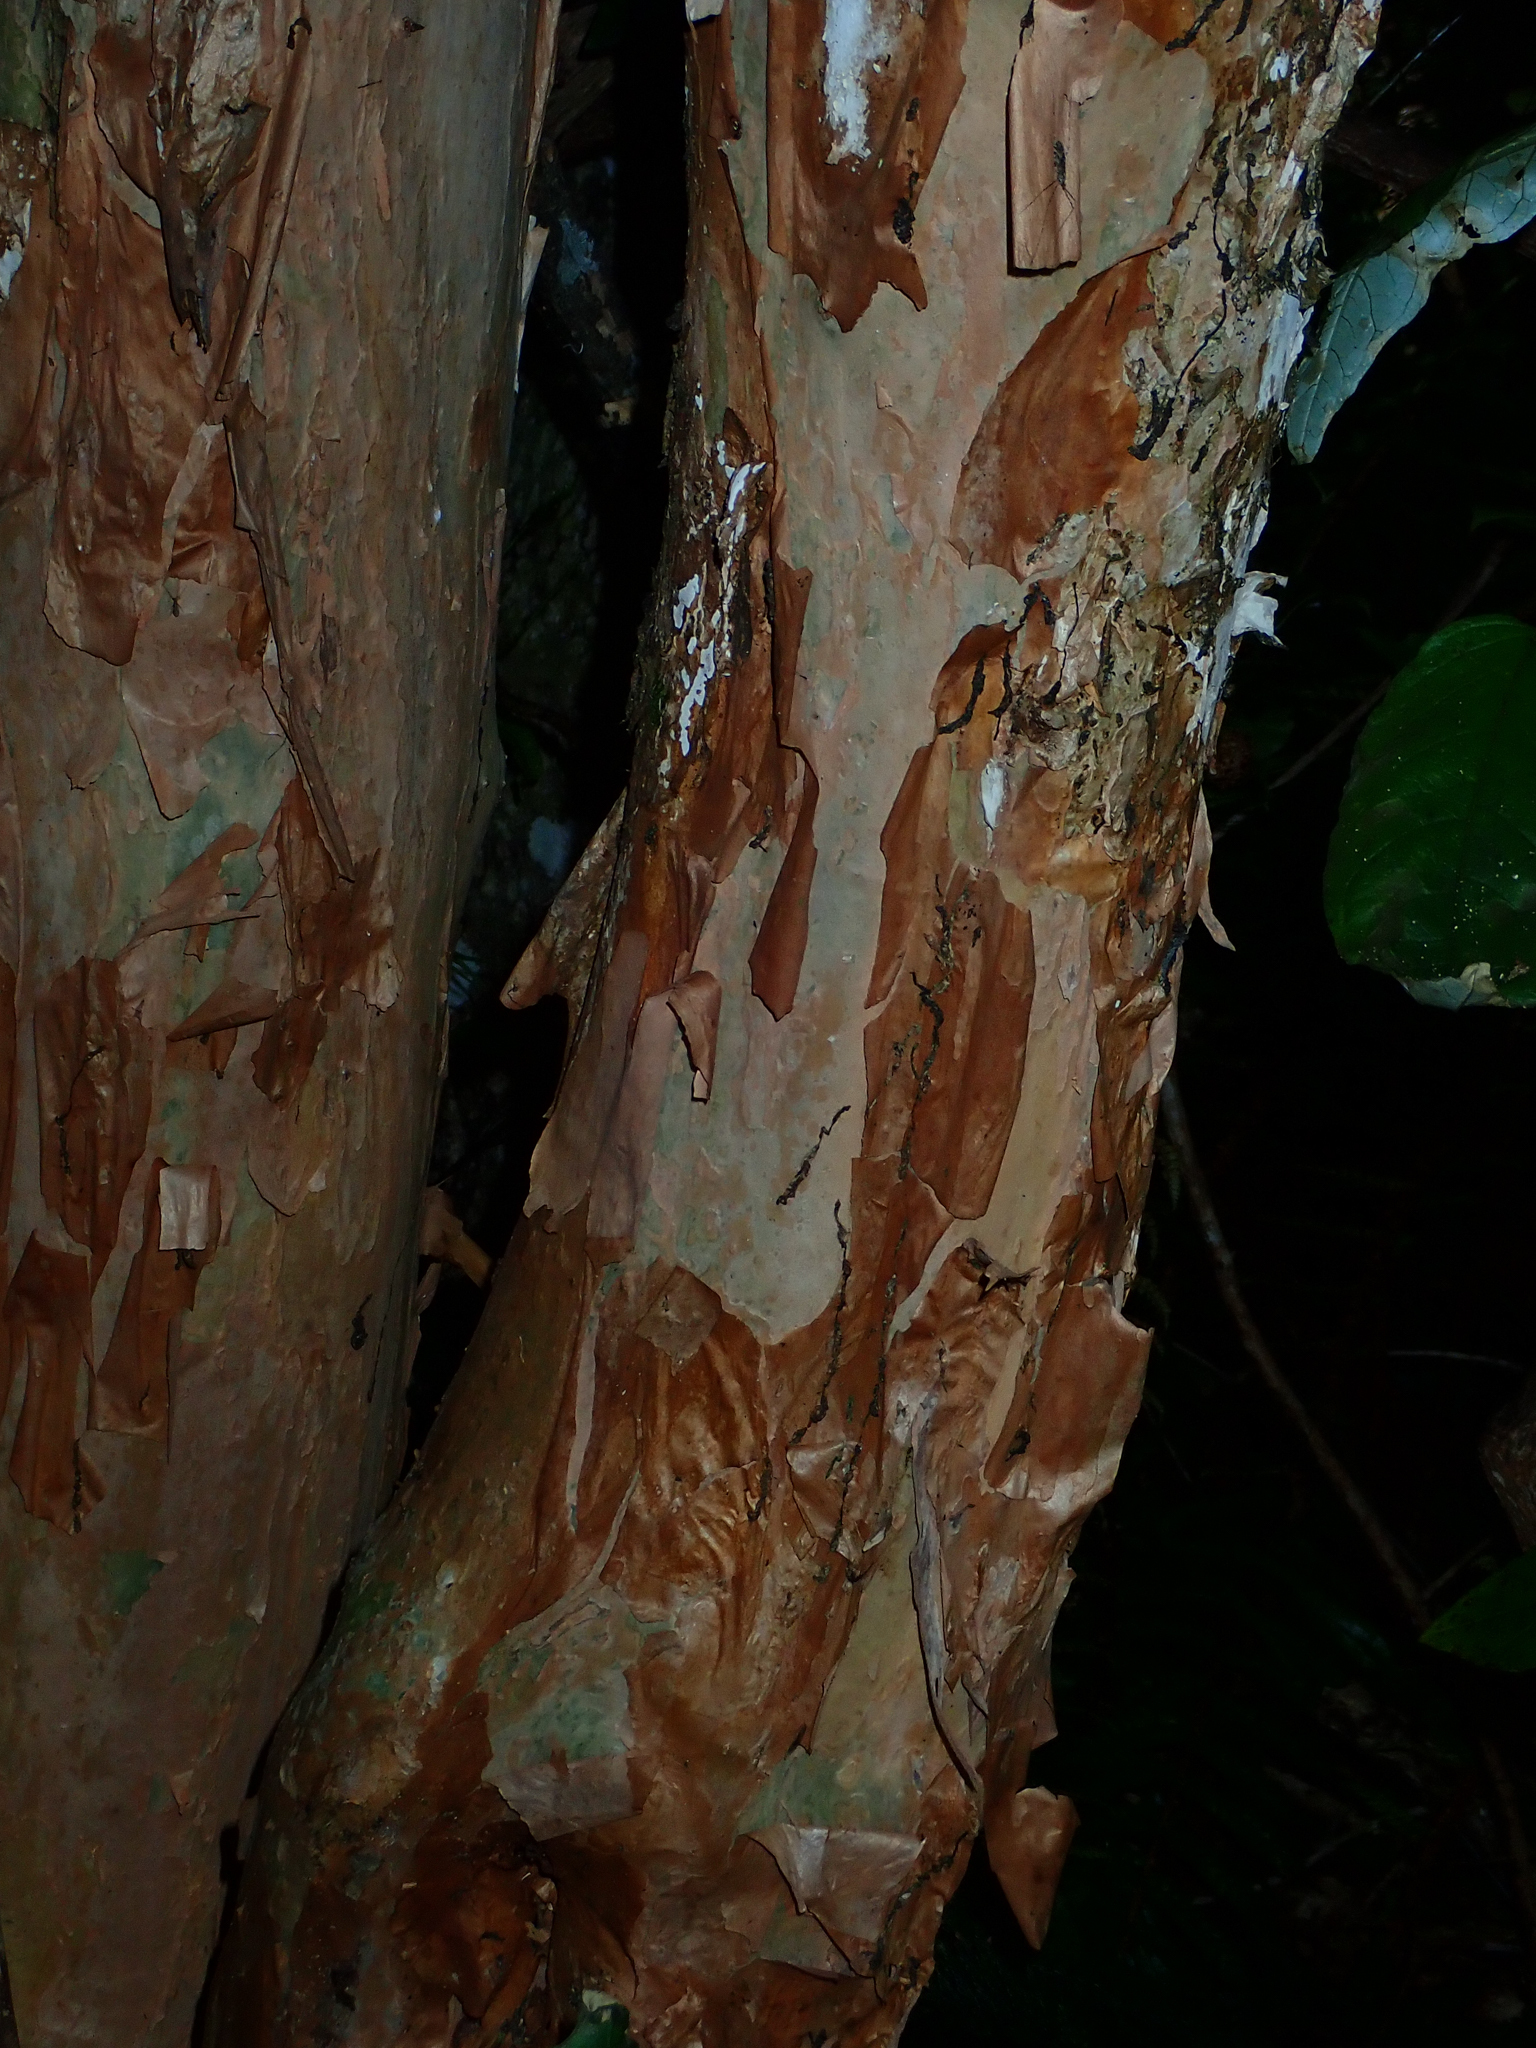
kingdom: Plantae
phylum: Tracheophyta
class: Magnoliopsida
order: Myrtales
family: Onagraceae
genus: Fuchsia
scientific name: Fuchsia excorticata
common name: Tree fuchsia
